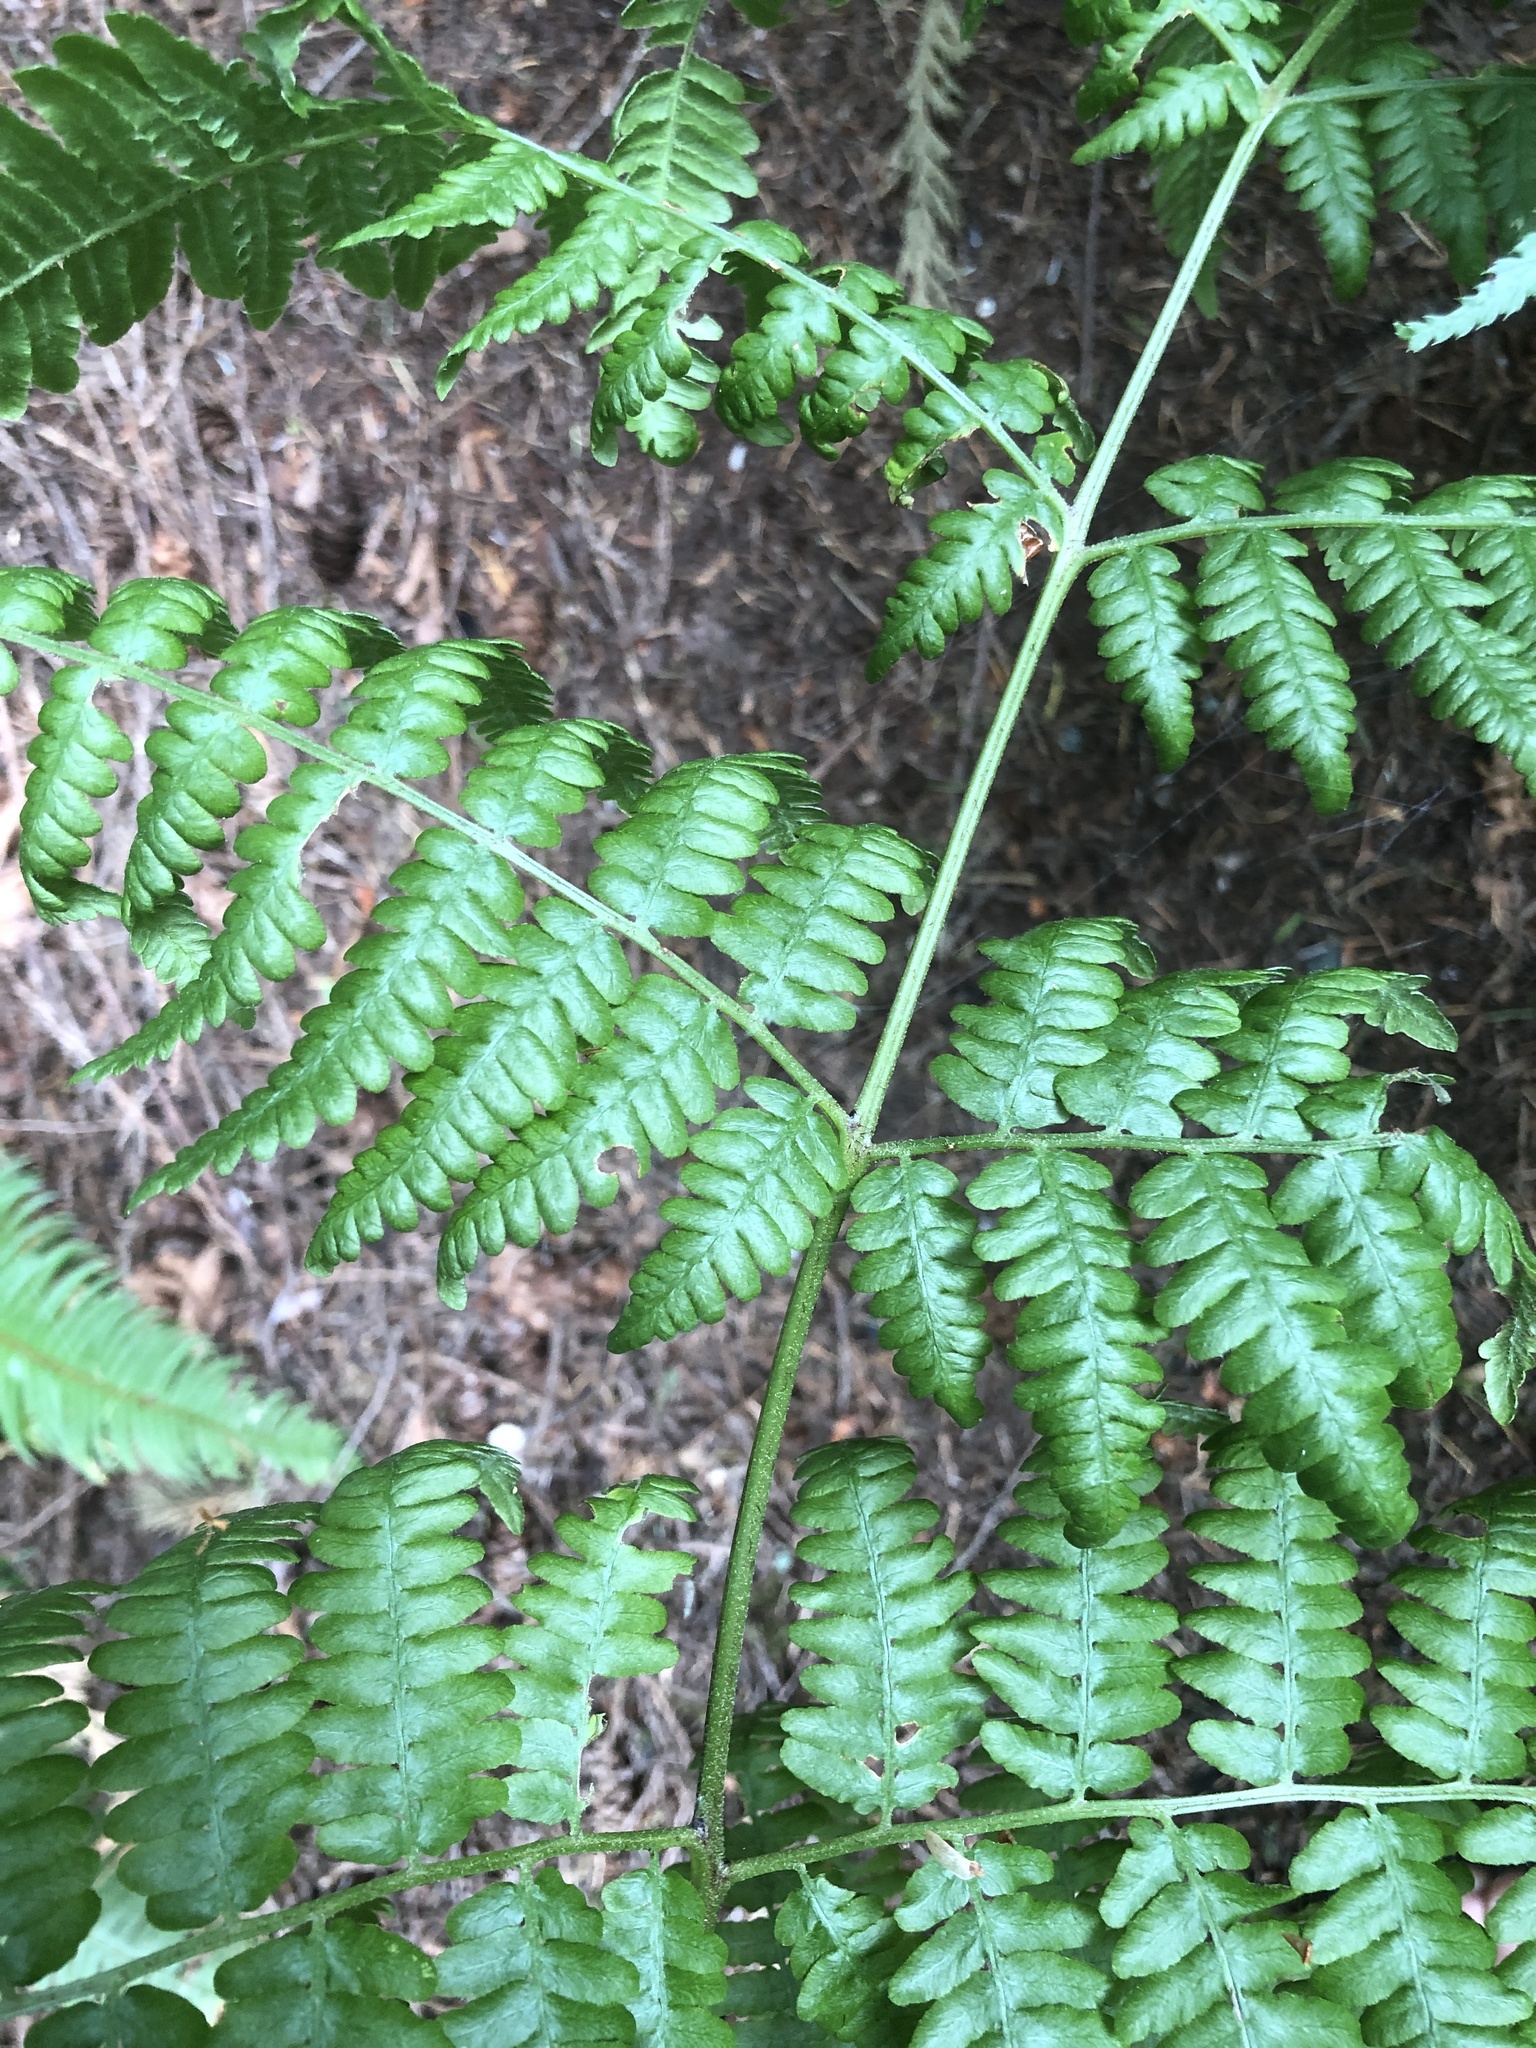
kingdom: Plantae
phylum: Tracheophyta
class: Polypodiopsida
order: Polypodiales
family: Dennstaedtiaceae
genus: Pteridium
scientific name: Pteridium aquilinum
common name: Bracken
